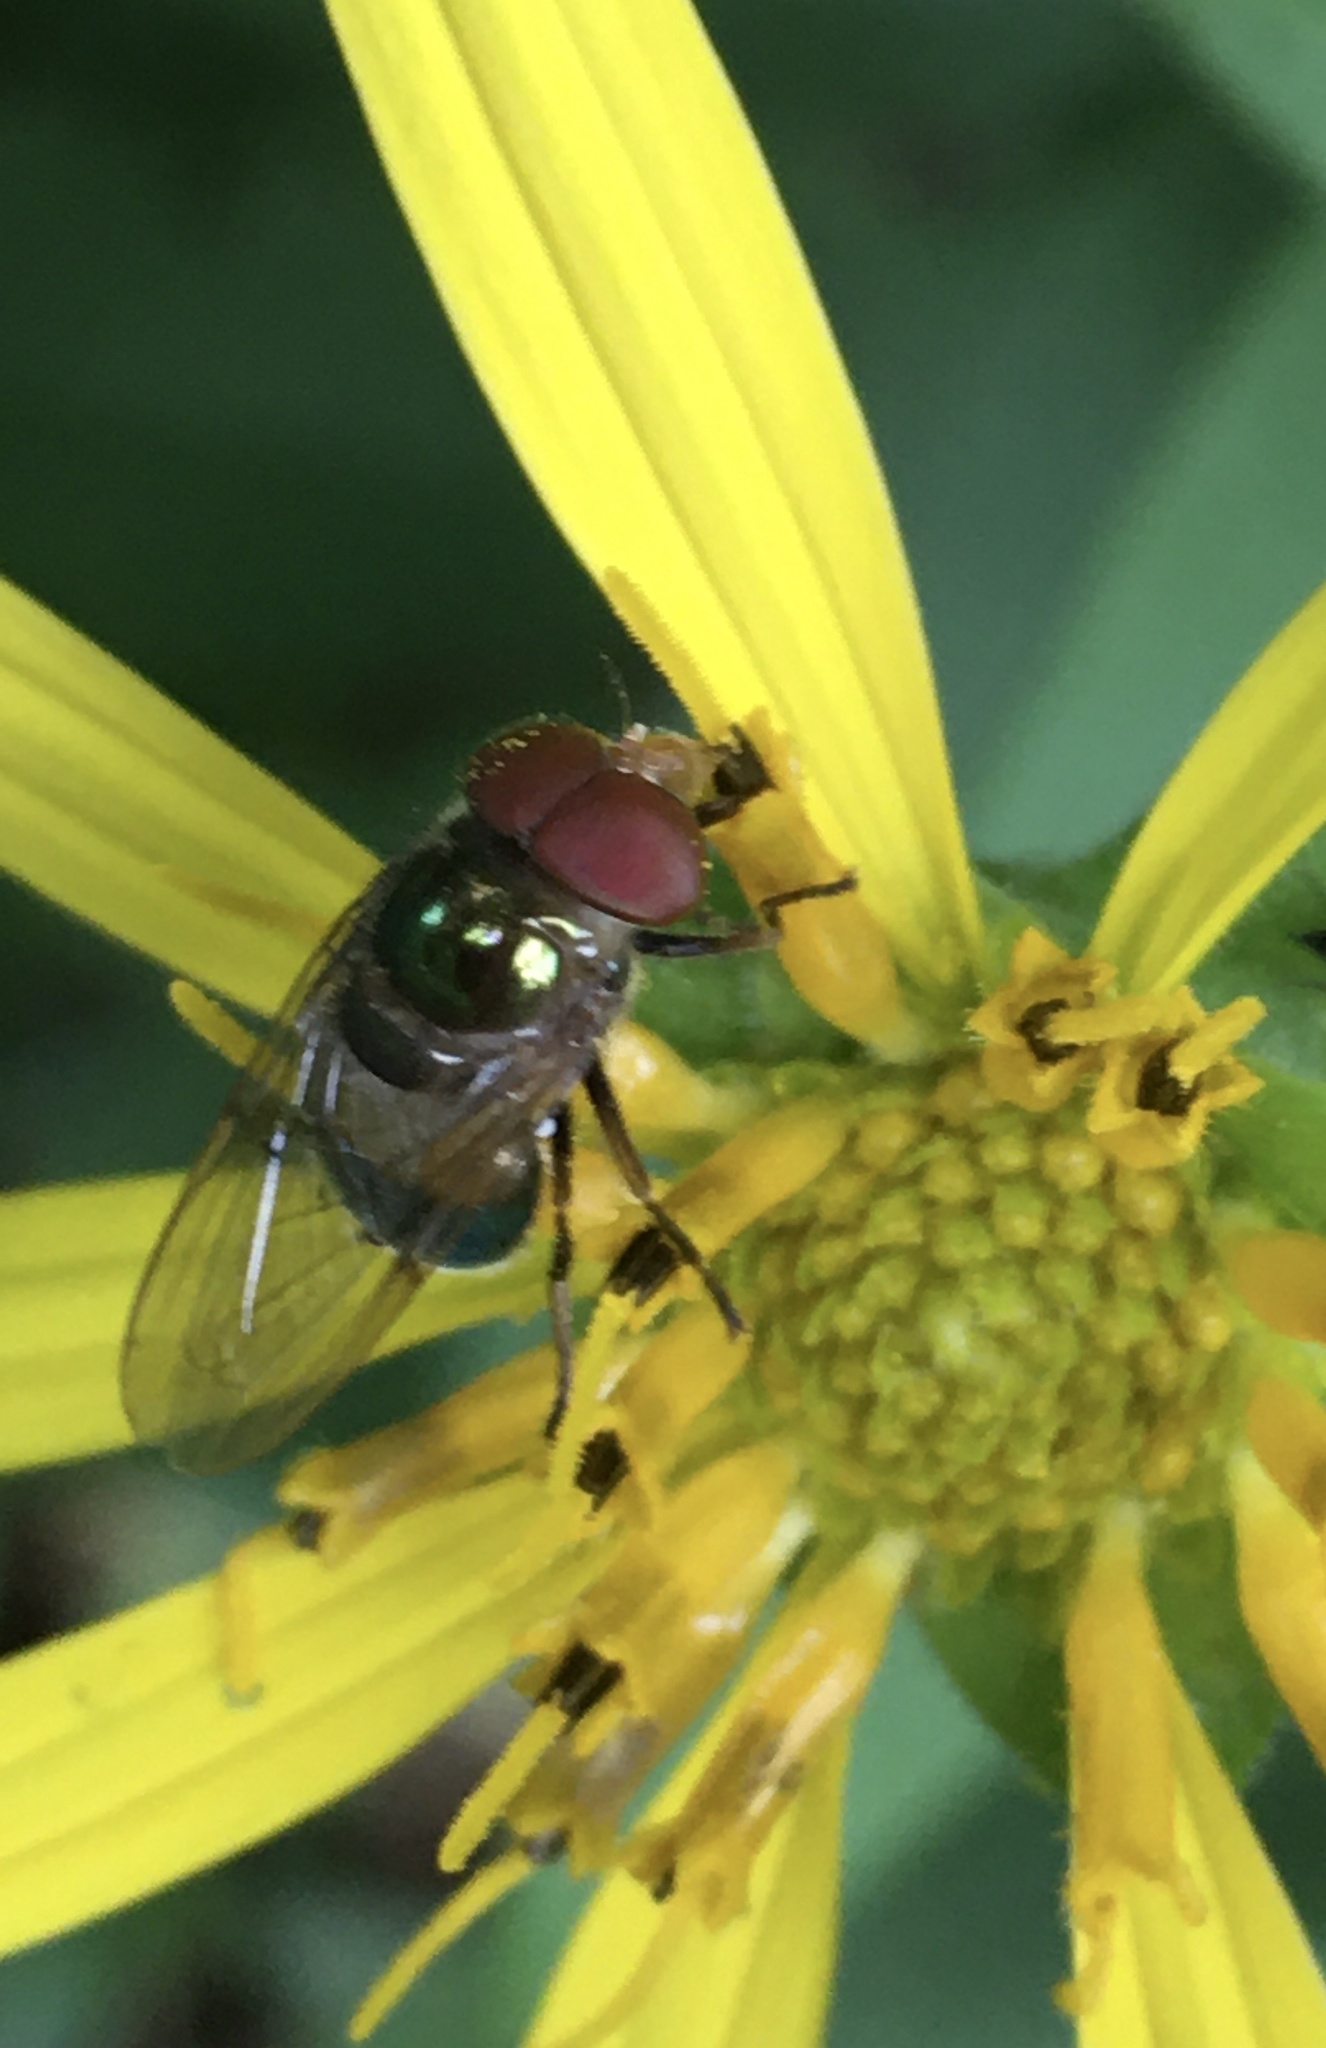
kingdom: Animalia
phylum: Arthropoda
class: Insecta
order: Diptera
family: Syrphidae
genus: Copestylum
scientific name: Copestylum vesicularium
